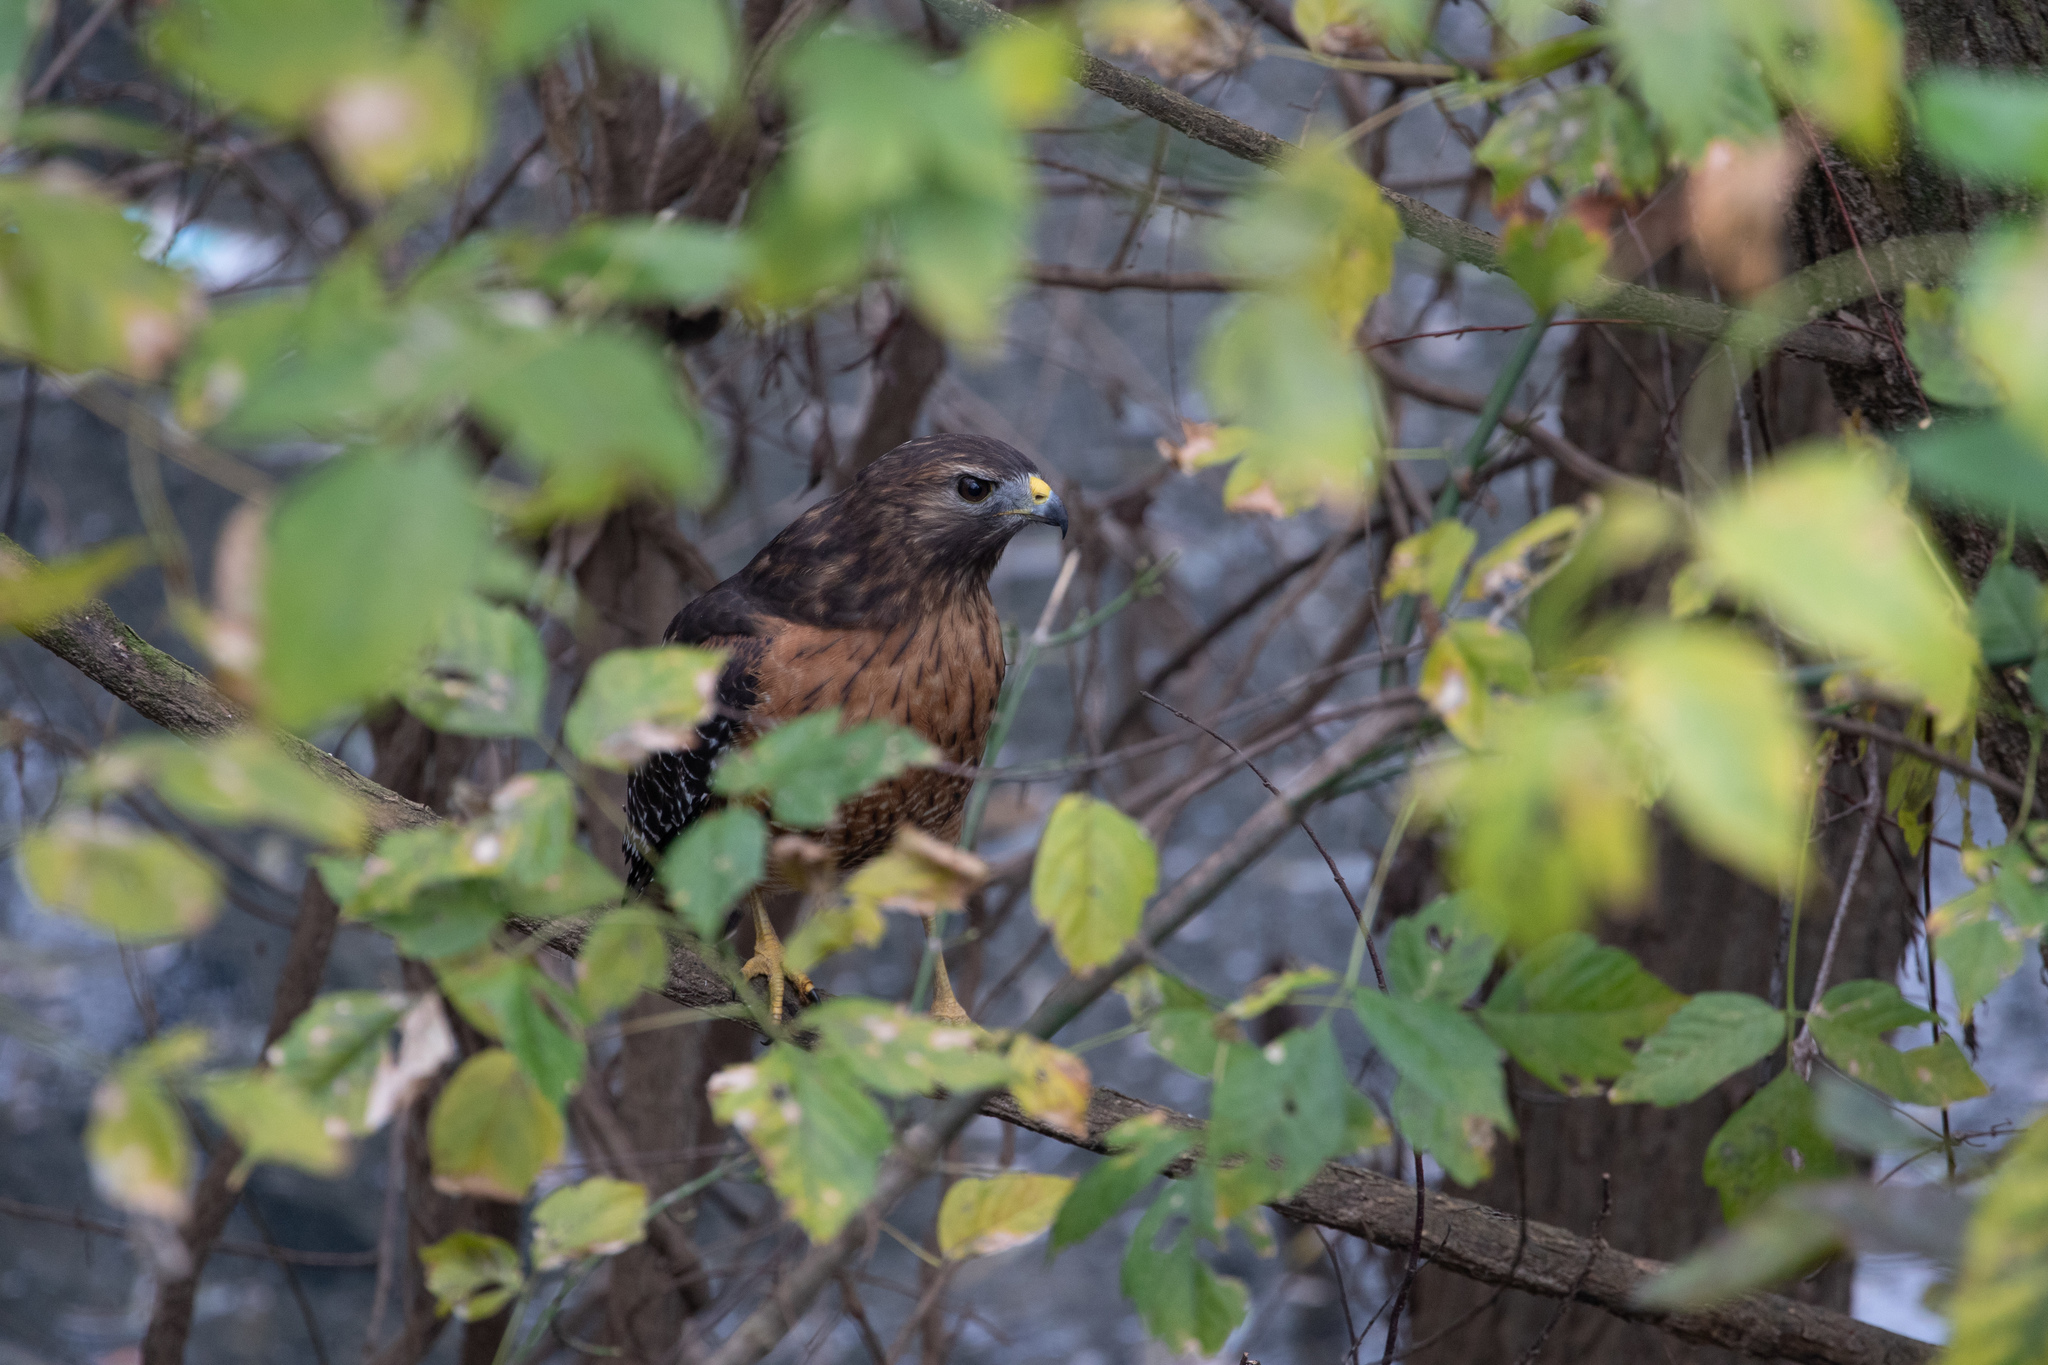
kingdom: Animalia
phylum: Chordata
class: Aves
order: Accipitriformes
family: Accipitridae
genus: Buteo
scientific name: Buteo lineatus
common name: Red-shouldered hawk
